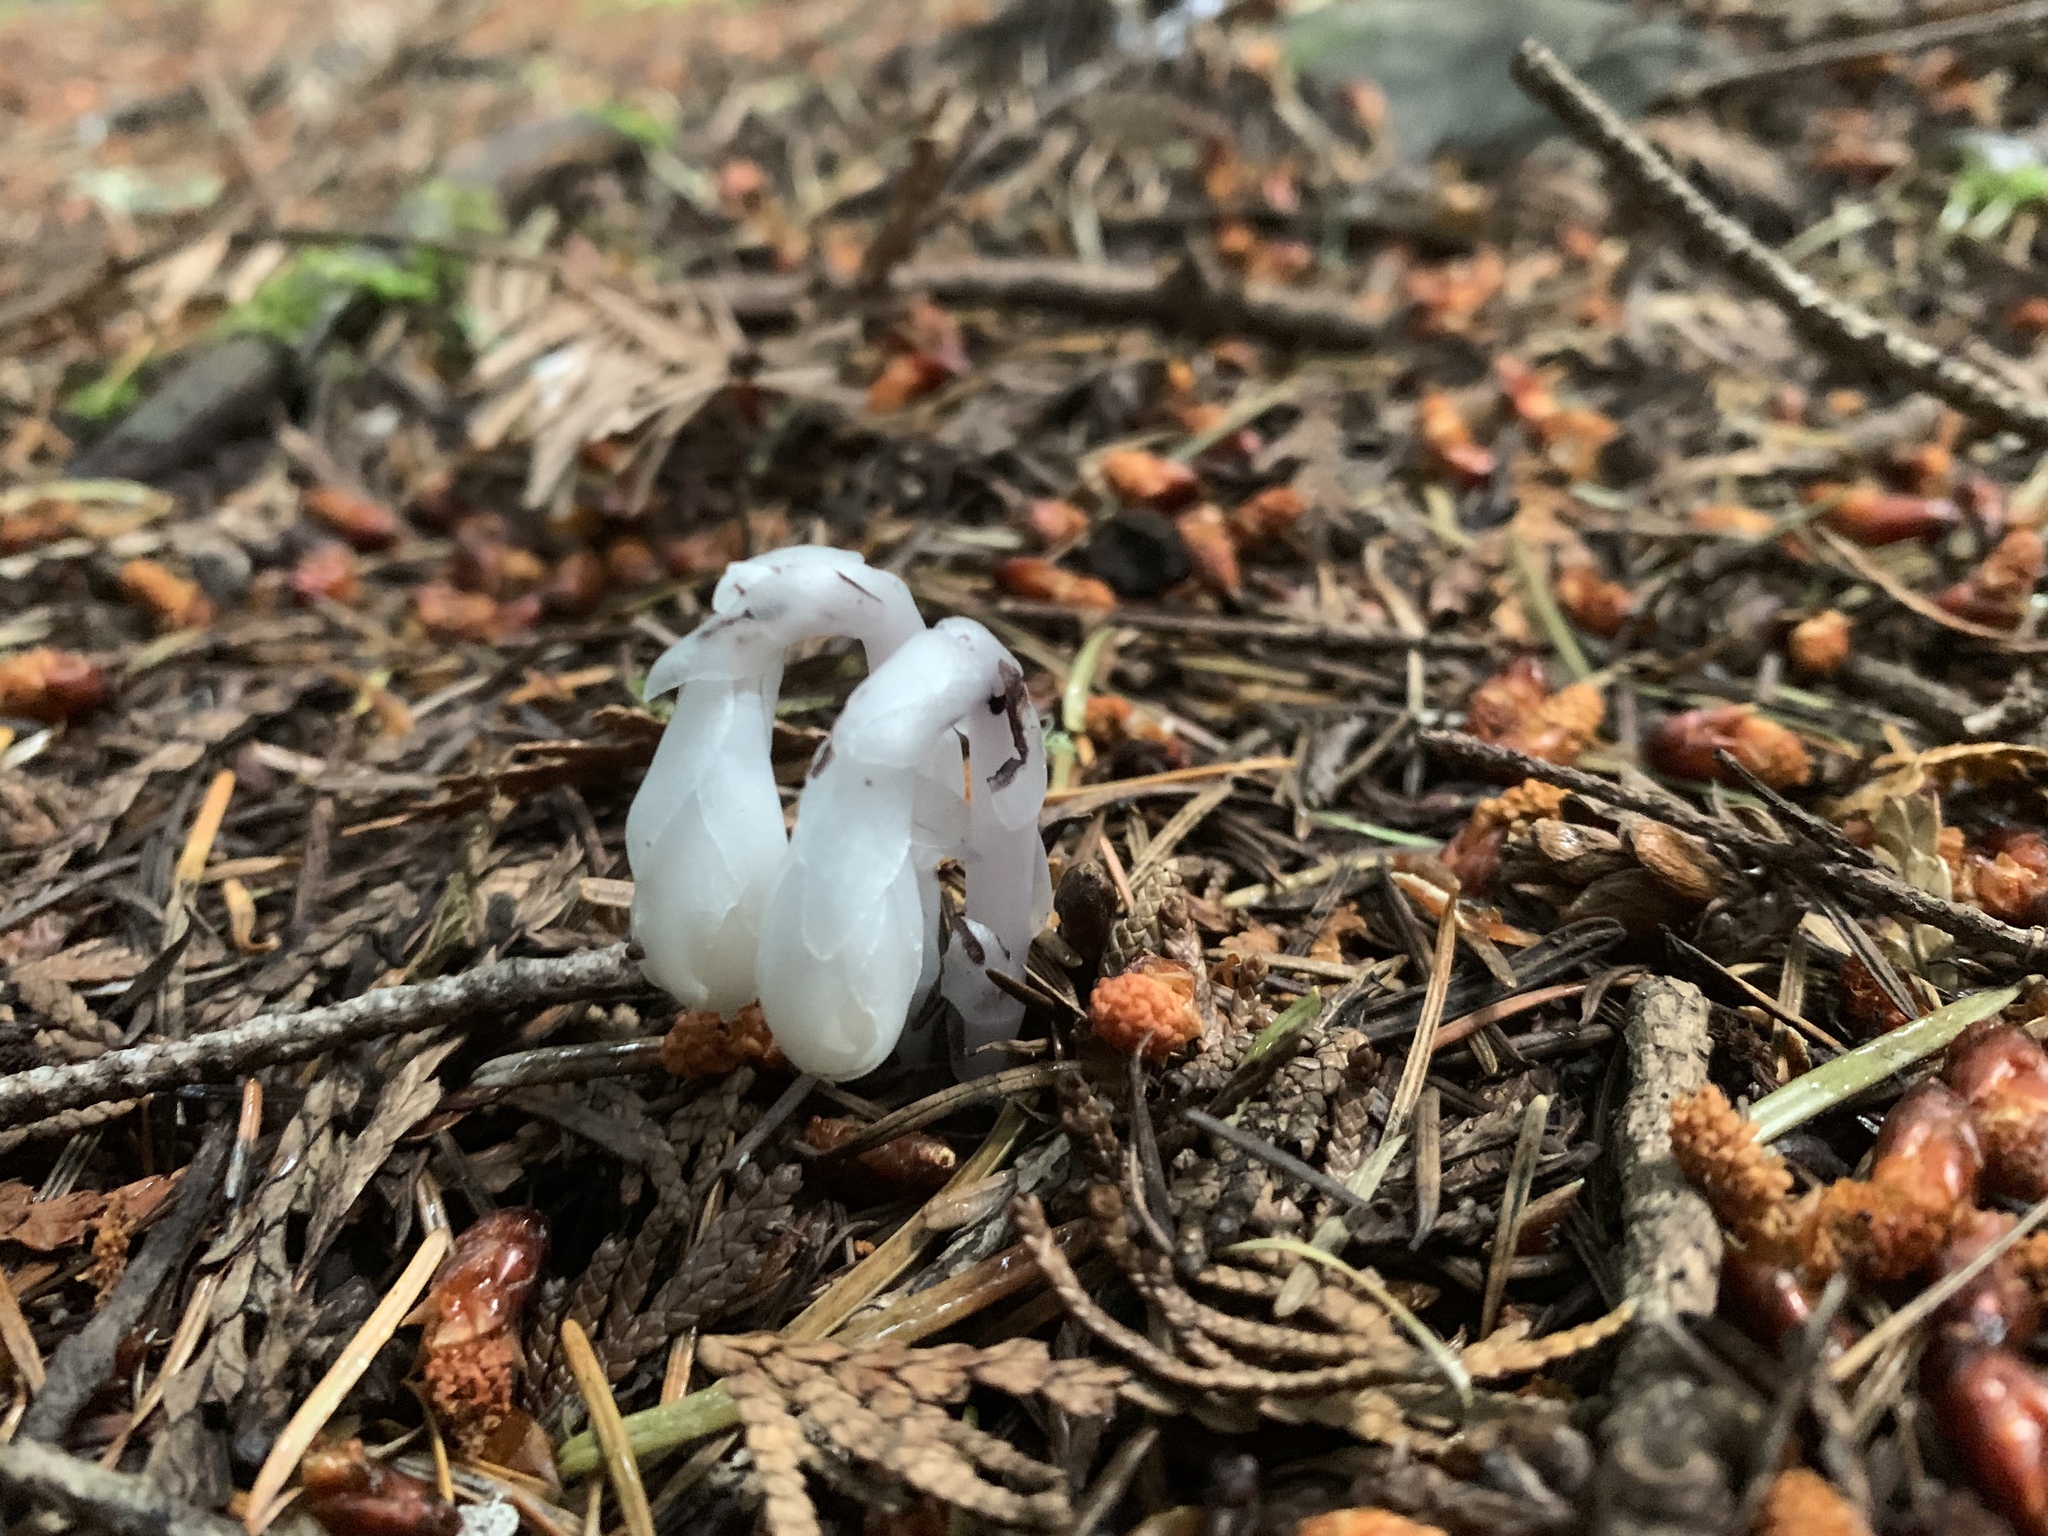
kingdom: Plantae
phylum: Tracheophyta
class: Magnoliopsida
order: Ericales
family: Ericaceae
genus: Monotropa
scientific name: Monotropa uniflora
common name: Convulsion root
